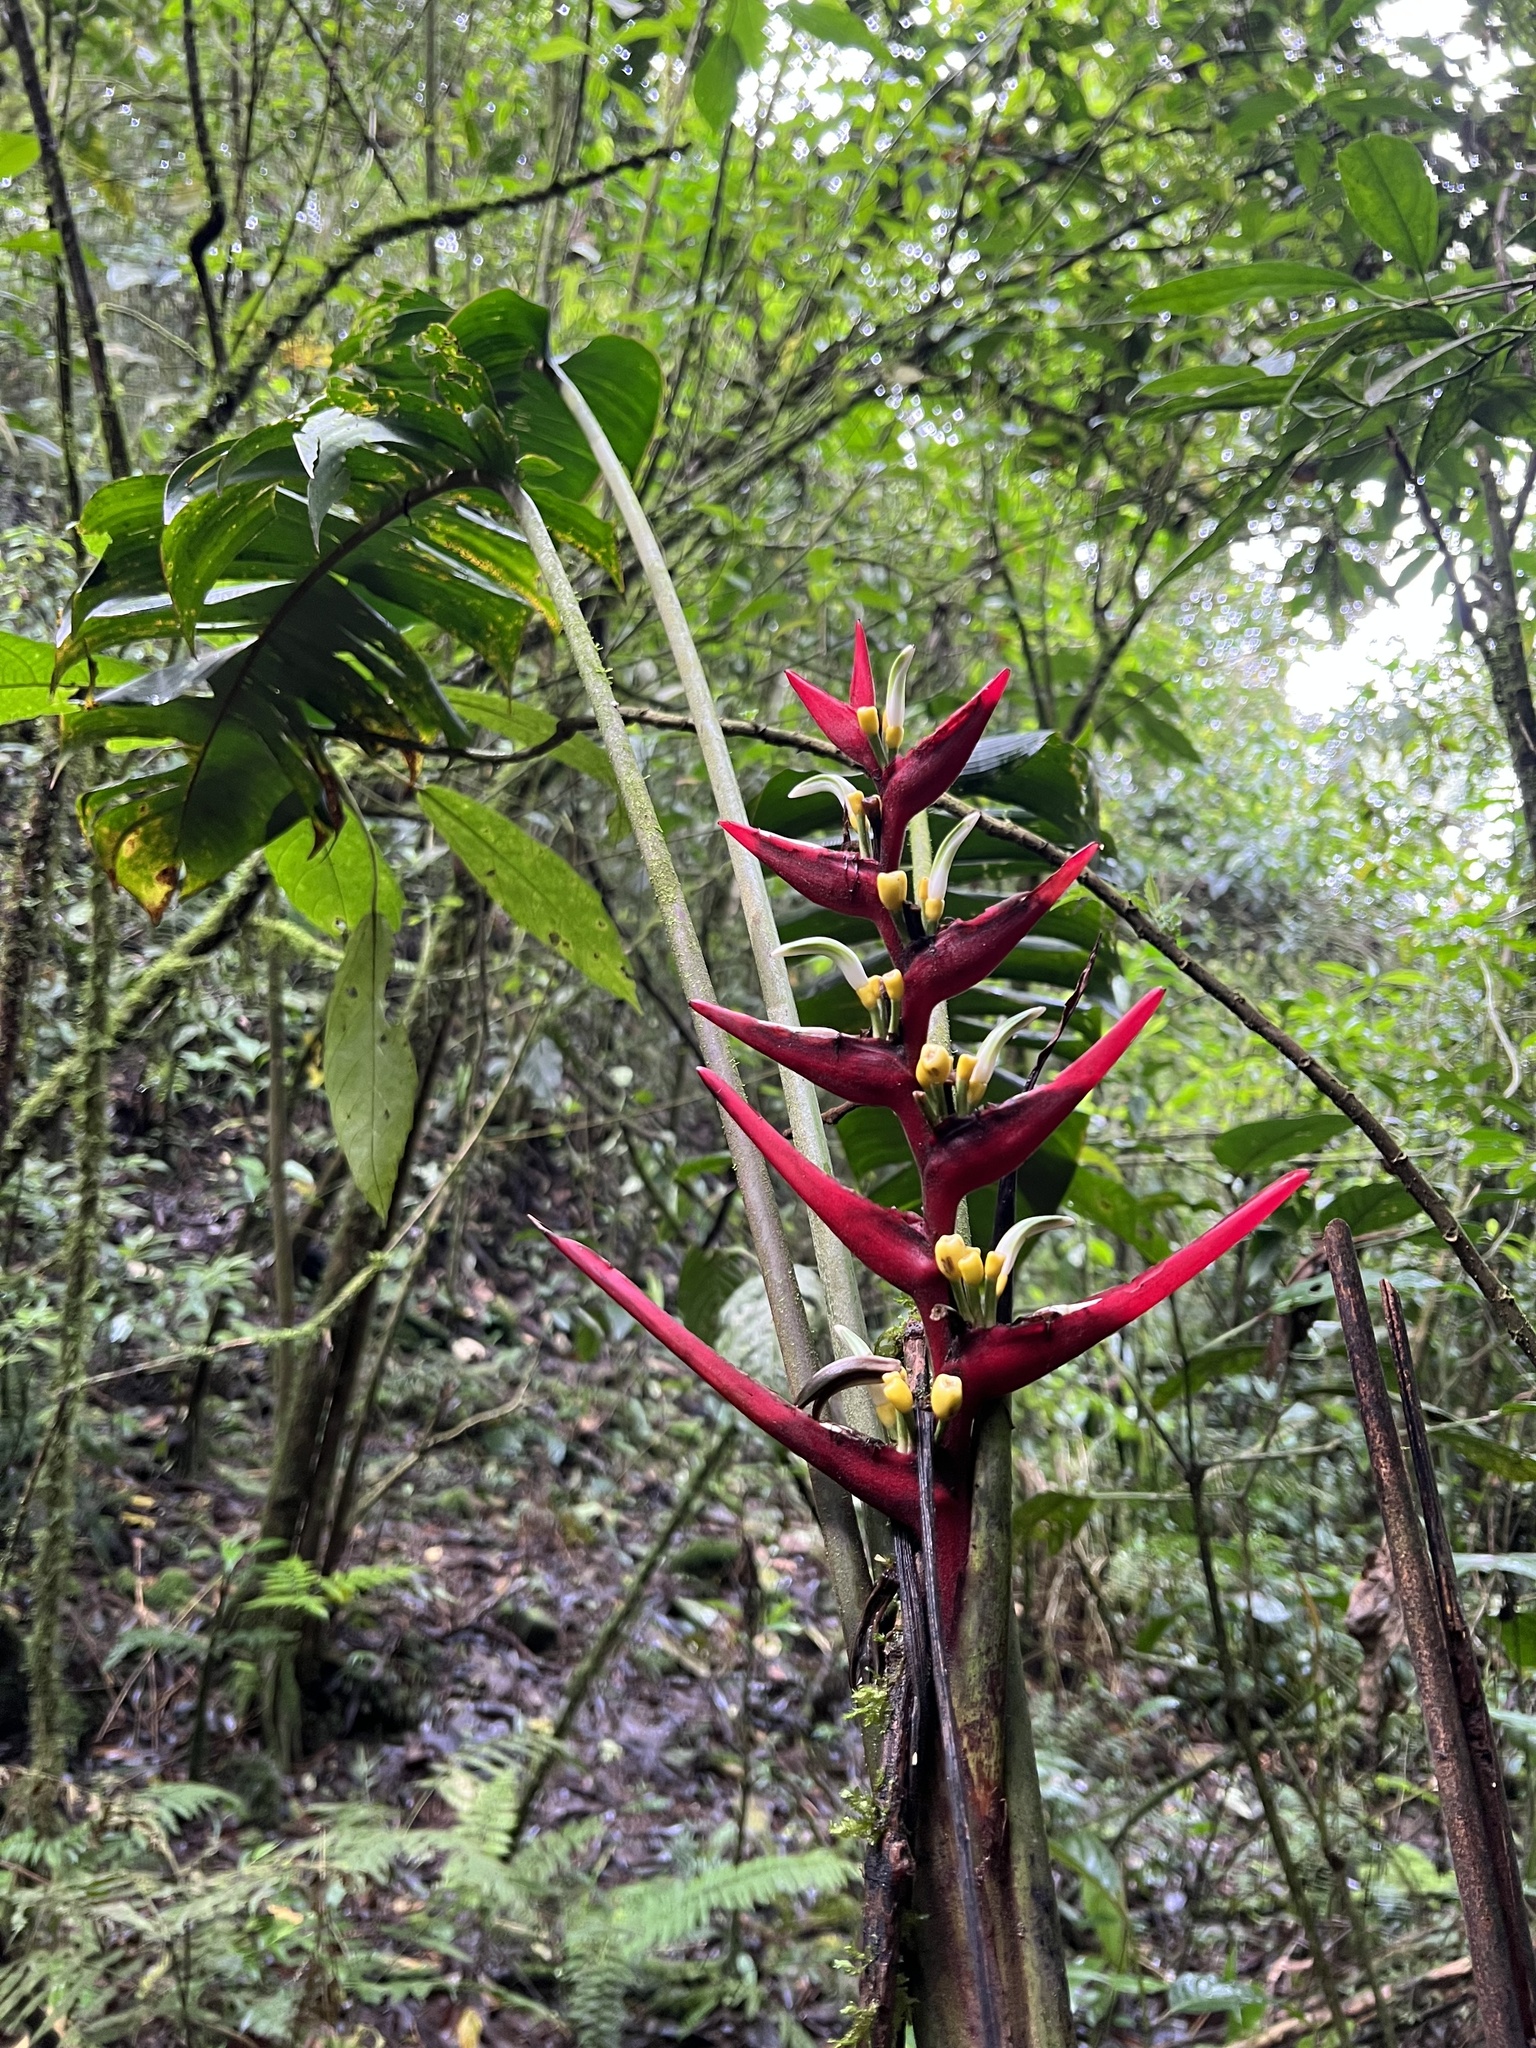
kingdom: Plantae
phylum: Tracheophyta
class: Liliopsida
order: Zingiberales
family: Heliconiaceae
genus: Heliconia
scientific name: Heliconia burleana
